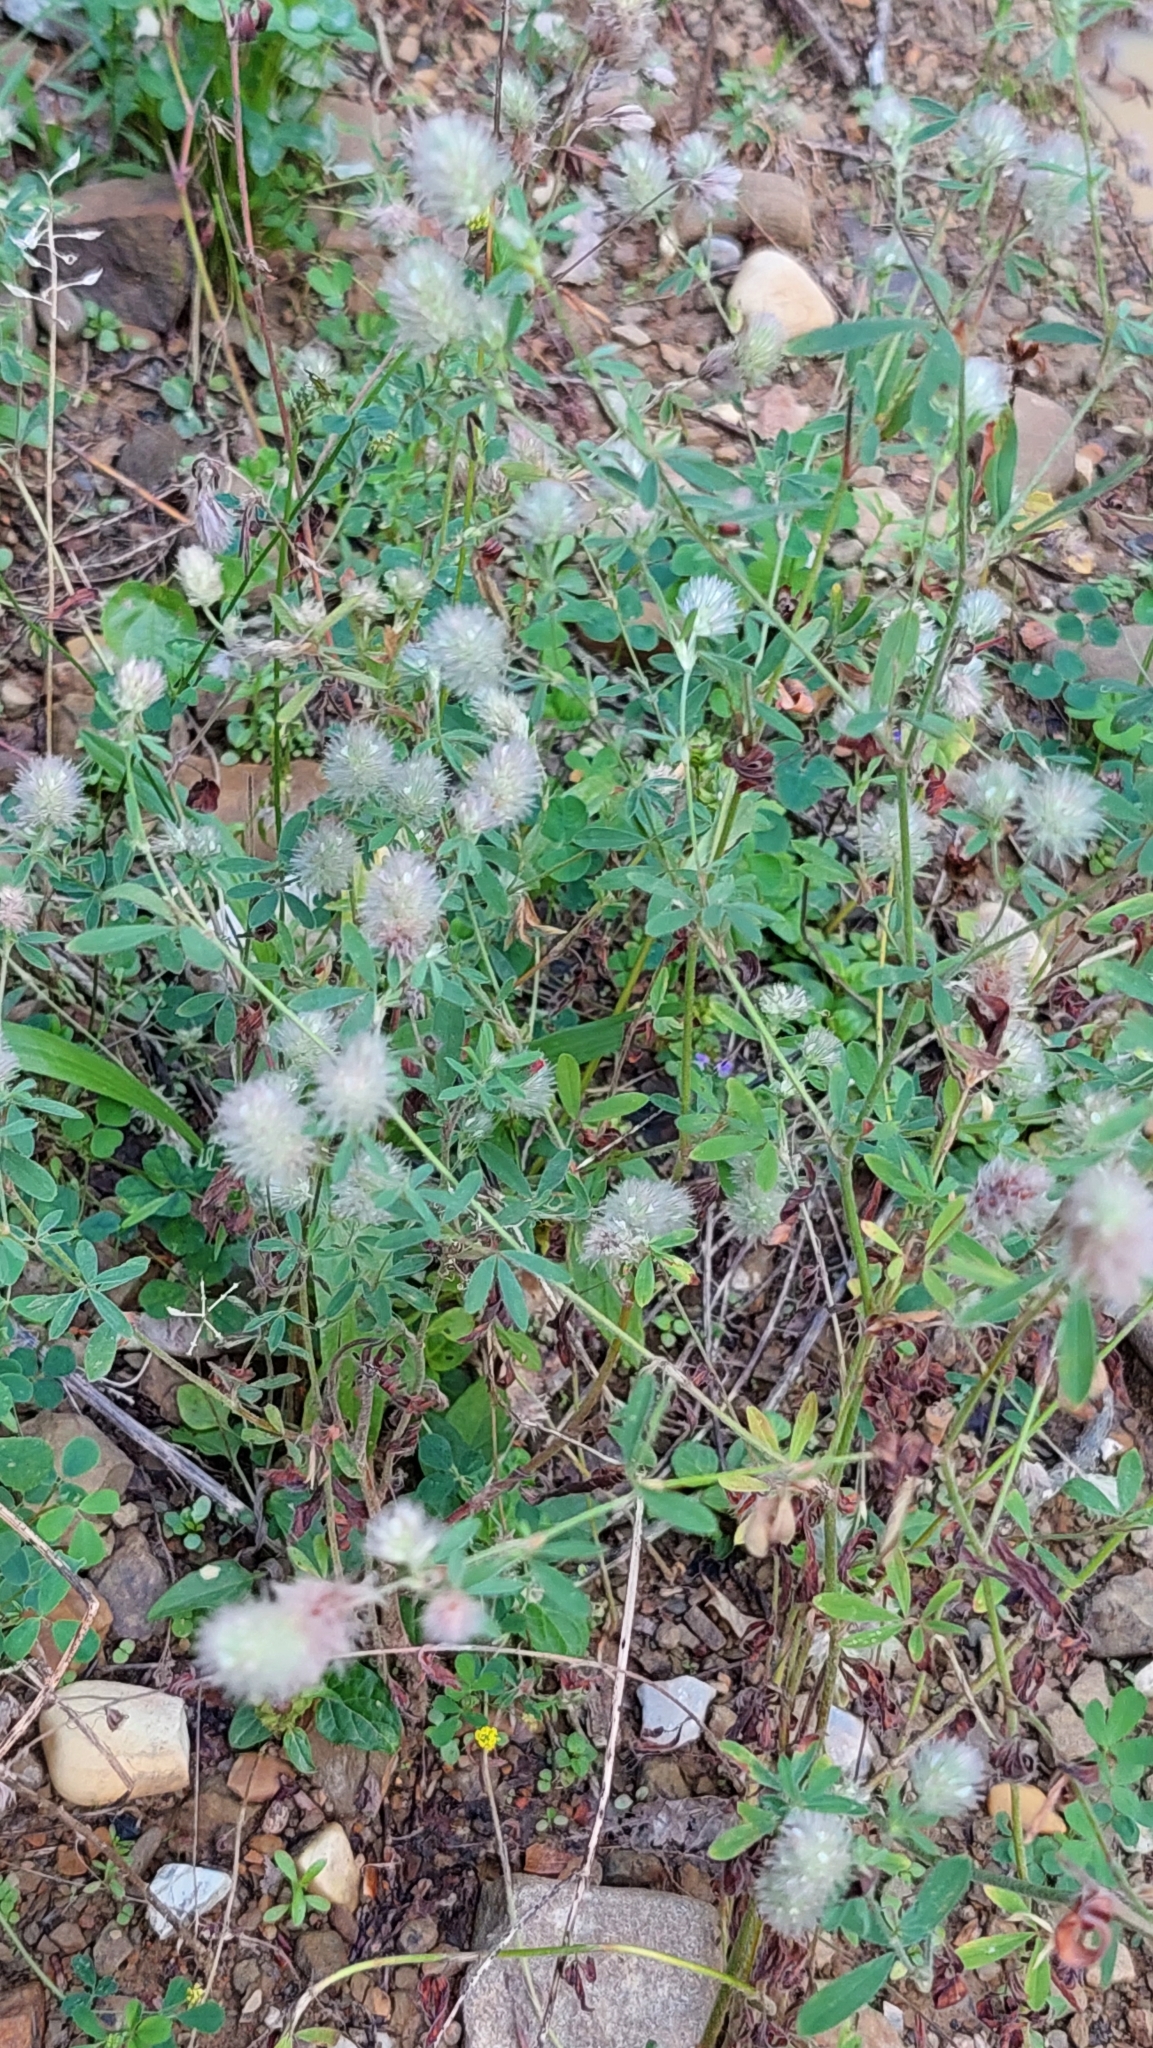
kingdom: Plantae
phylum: Tracheophyta
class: Magnoliopsida
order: Fabales
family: Fabaceae
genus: Trifolium
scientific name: Trifolium arvense
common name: Hare's-foot clover
